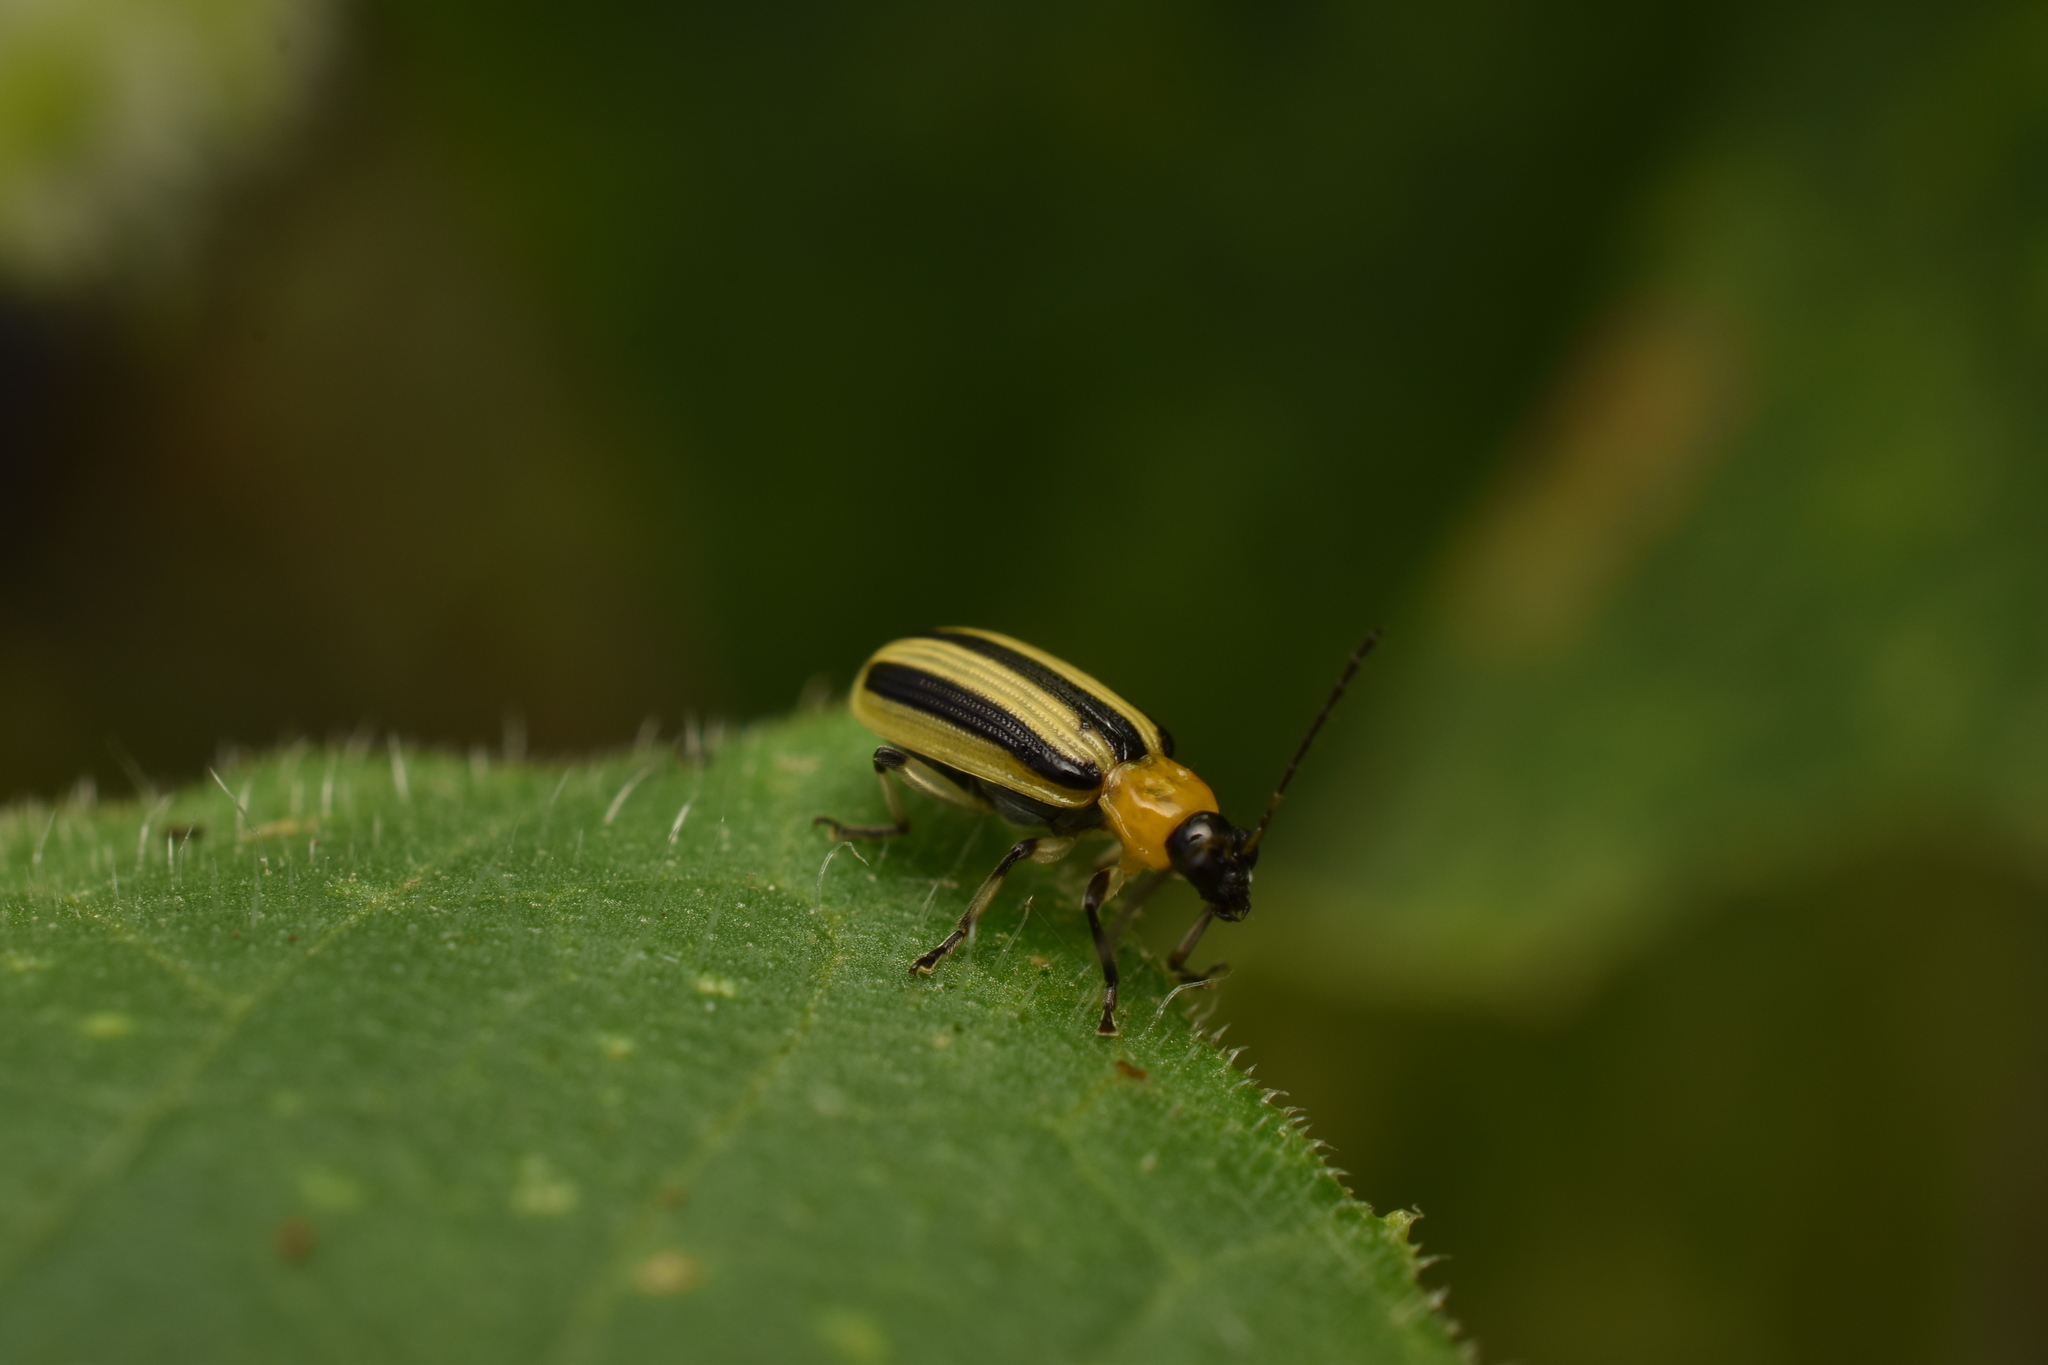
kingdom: Animalia
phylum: Arthropoda
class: Insecta
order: Coleoptera
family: Chrysomelidae
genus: Acalymma
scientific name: Acalymma vittatum
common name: Striped cucumber beetle
